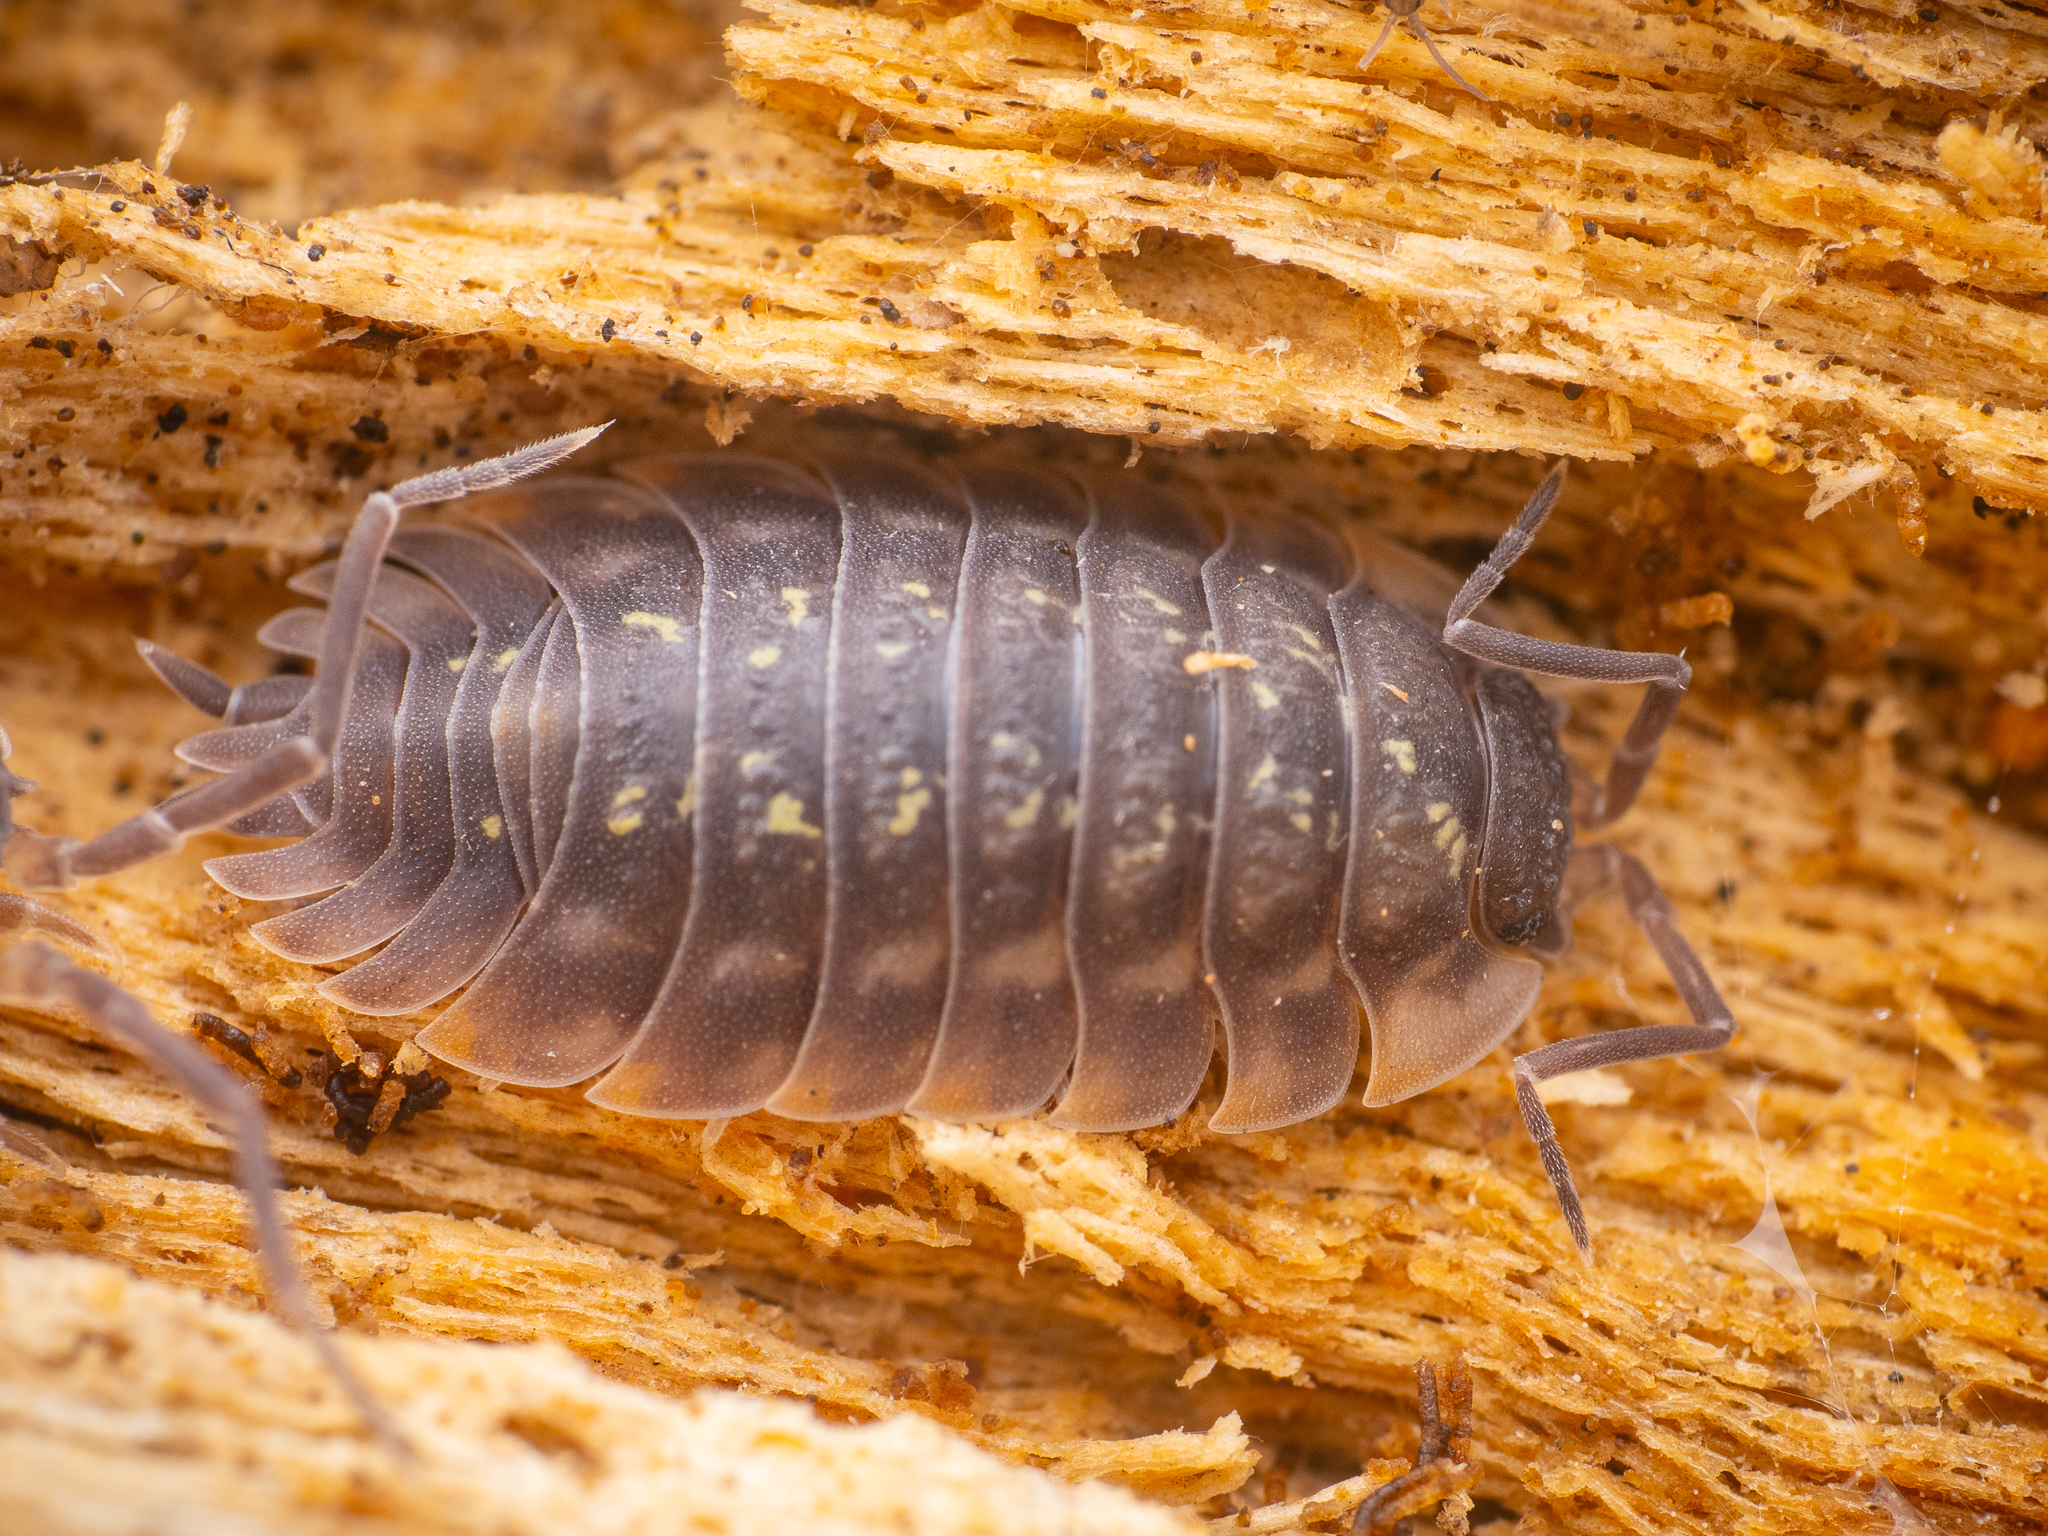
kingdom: Animalia
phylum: Arthropoda
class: Malacostraca
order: Isopoda
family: Oniscidae
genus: Oniscus
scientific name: Oniscus asellus
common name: Common shiny woodlouse
